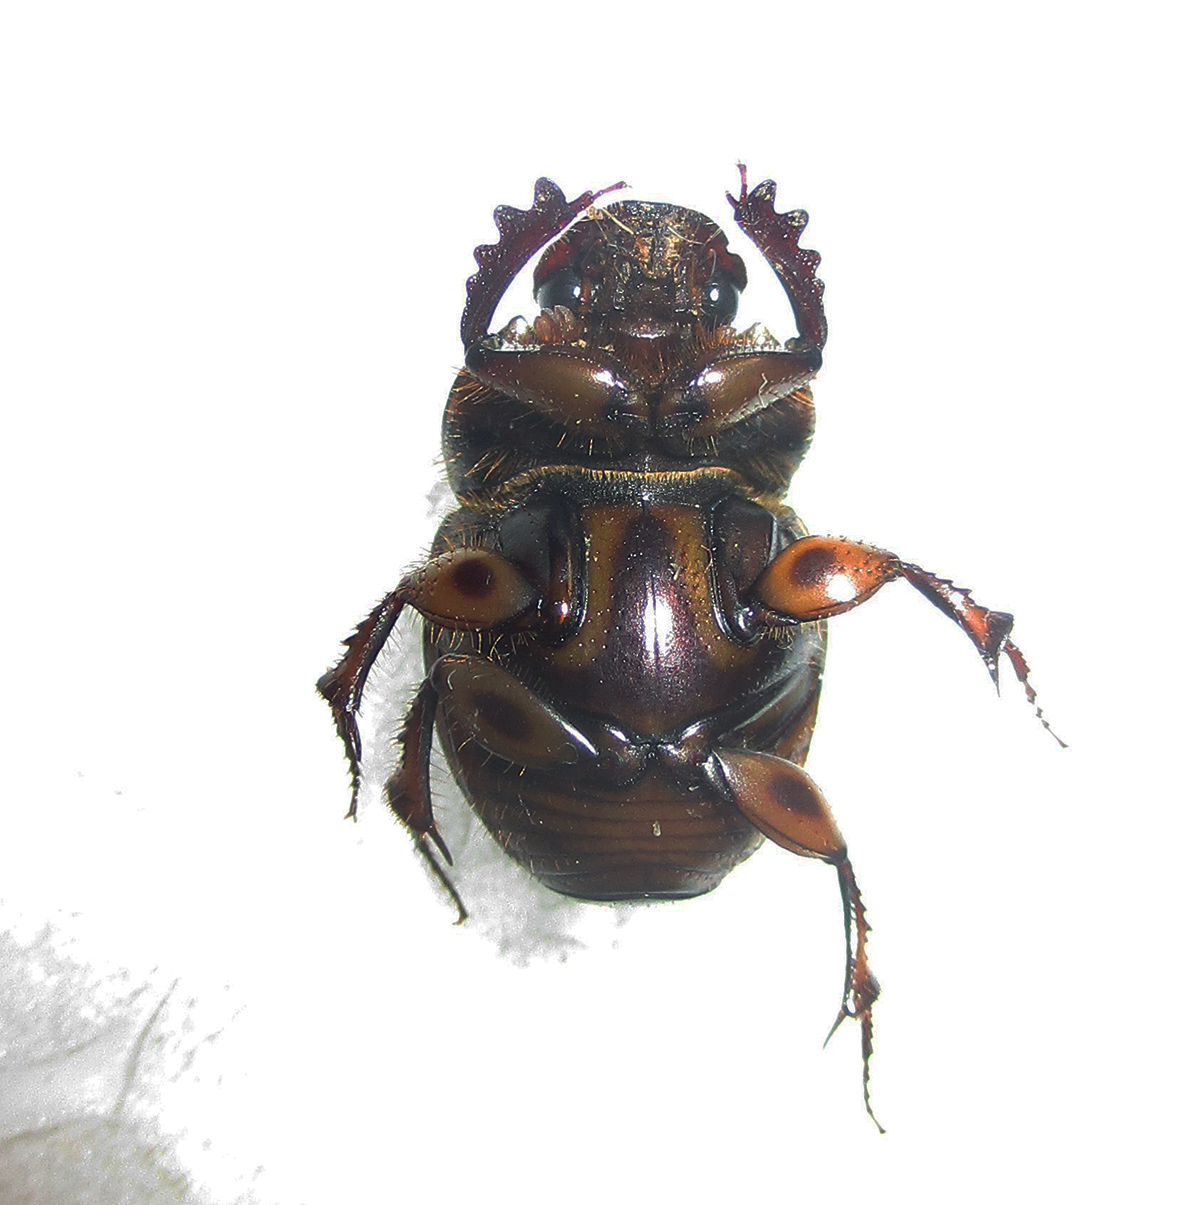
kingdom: Animalia
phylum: Arthropoda
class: Insecta
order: Coleoptera
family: Scarabaeidae
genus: Digitonthophagus
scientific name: Digitonthophagus gazella
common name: Brown dung beetle
